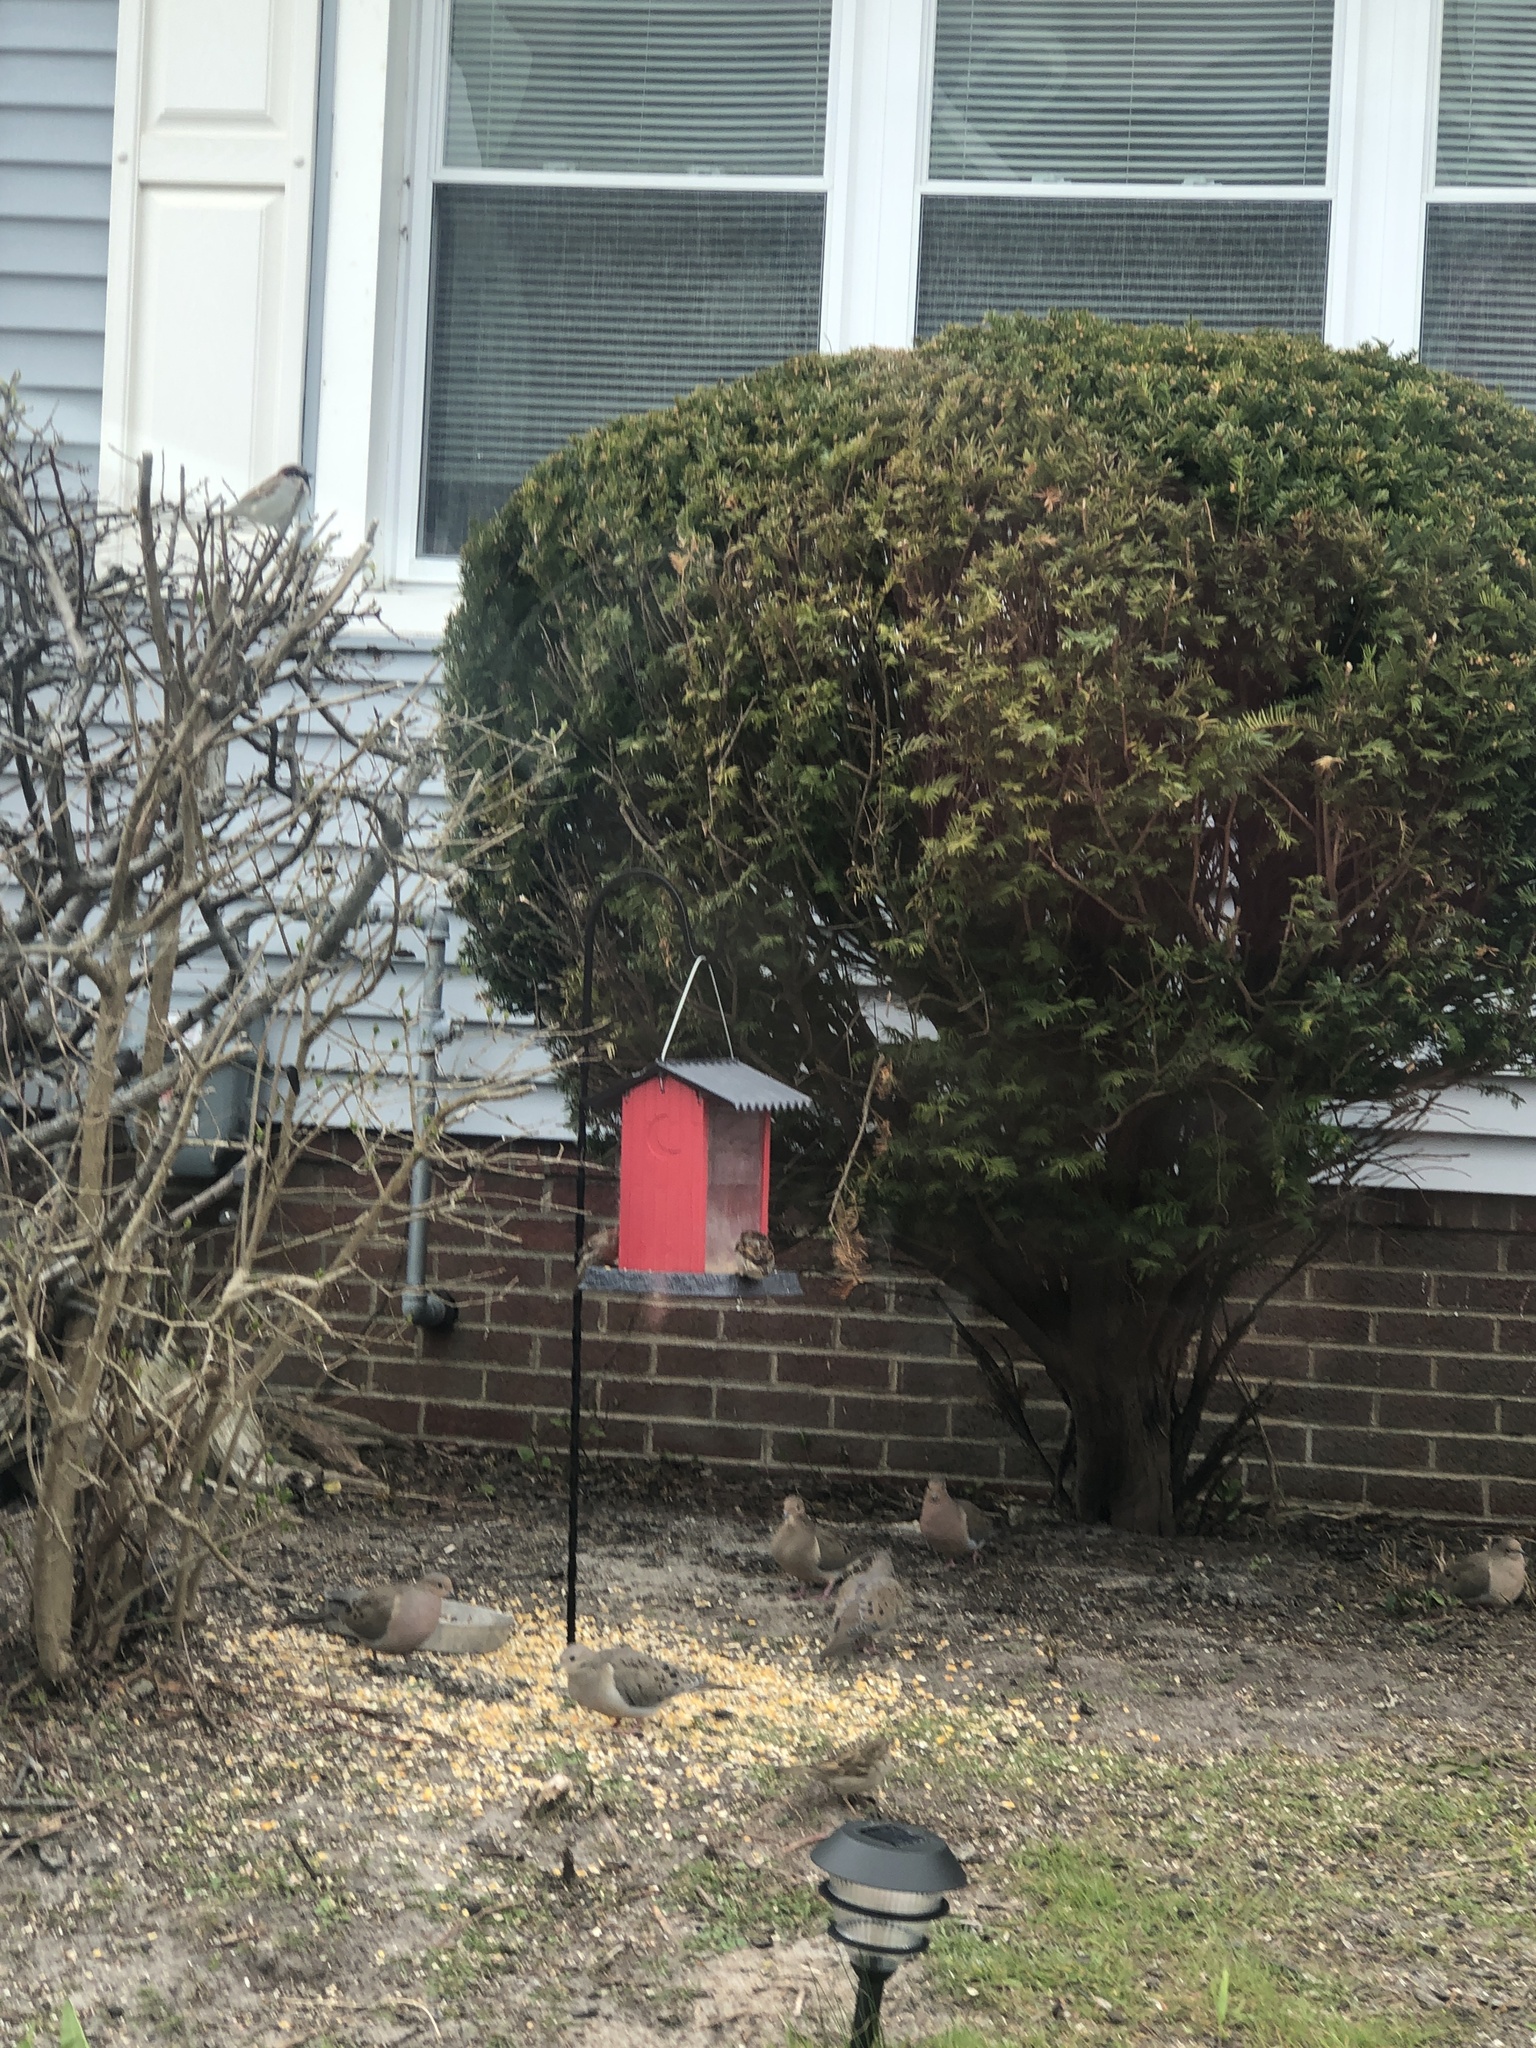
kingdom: Animalia
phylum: Chordata
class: Aves
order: Columbiformes
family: Columbidae
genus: Zenaida
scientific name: Zenaida macroura
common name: Mourning dove
